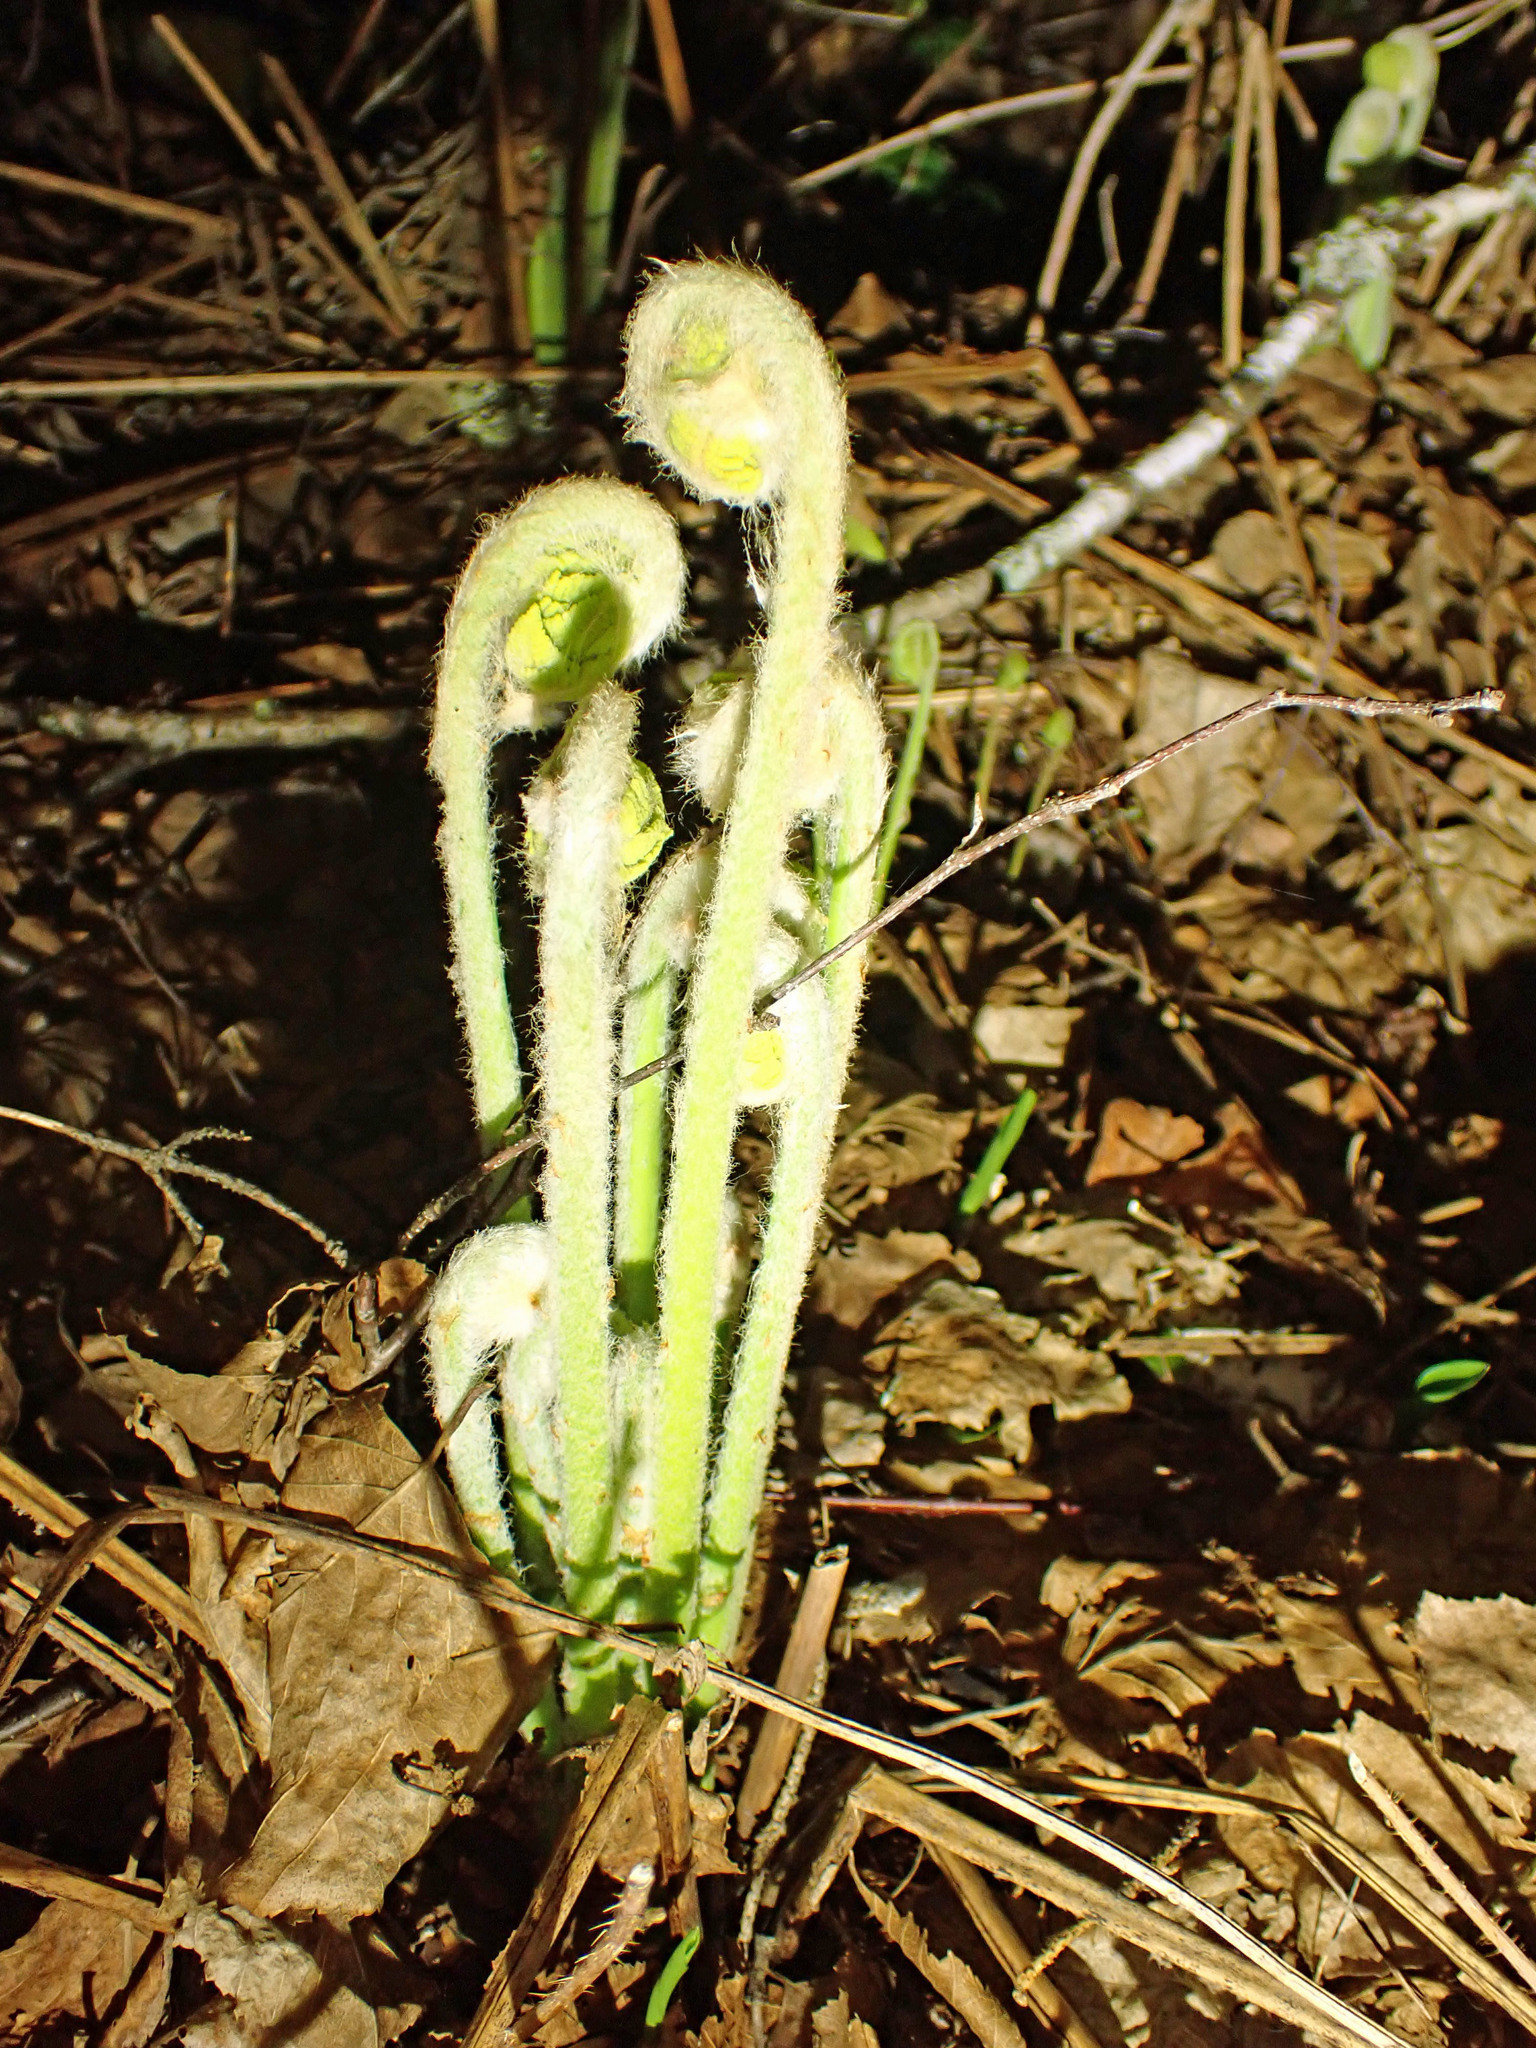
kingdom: Plantae
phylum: Tracheophyta
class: Polypodiopsida
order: Osmundales
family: Osmundaceae
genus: Claytosmunda
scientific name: Claytosmunda claytoniana
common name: Clayton's fern
